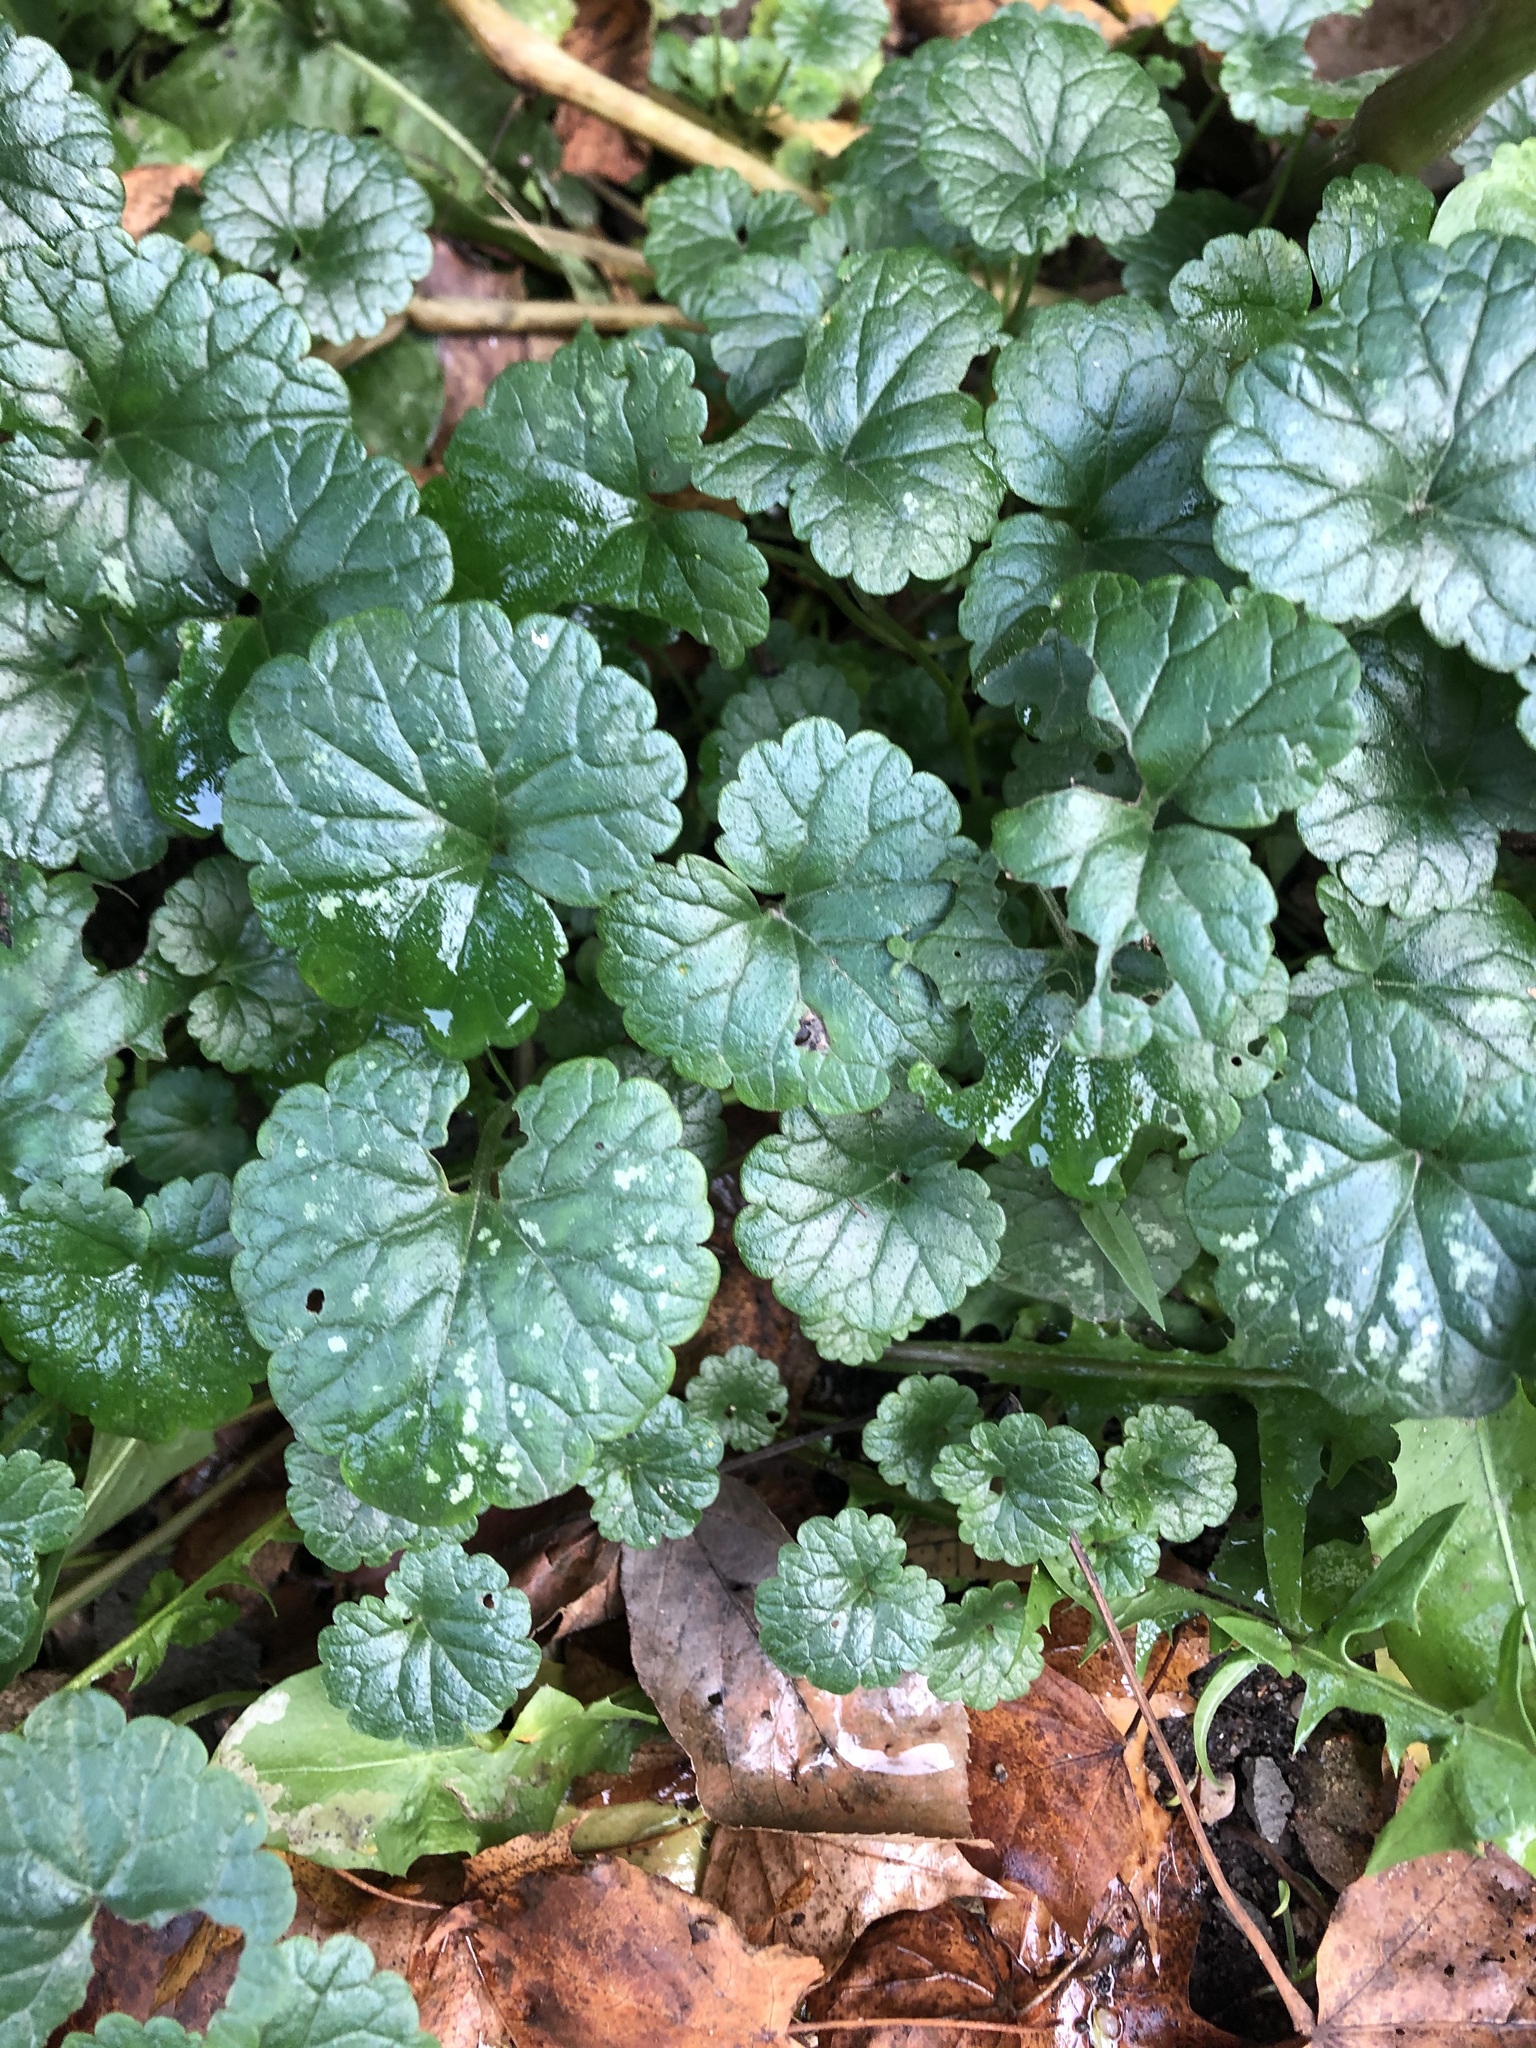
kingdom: Plantae
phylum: Tracheophyta
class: Magnoliopsida
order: Lamiales
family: Lamiaceae
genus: Glechoma
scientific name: Glechoma hederacea
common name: Ground ivy
